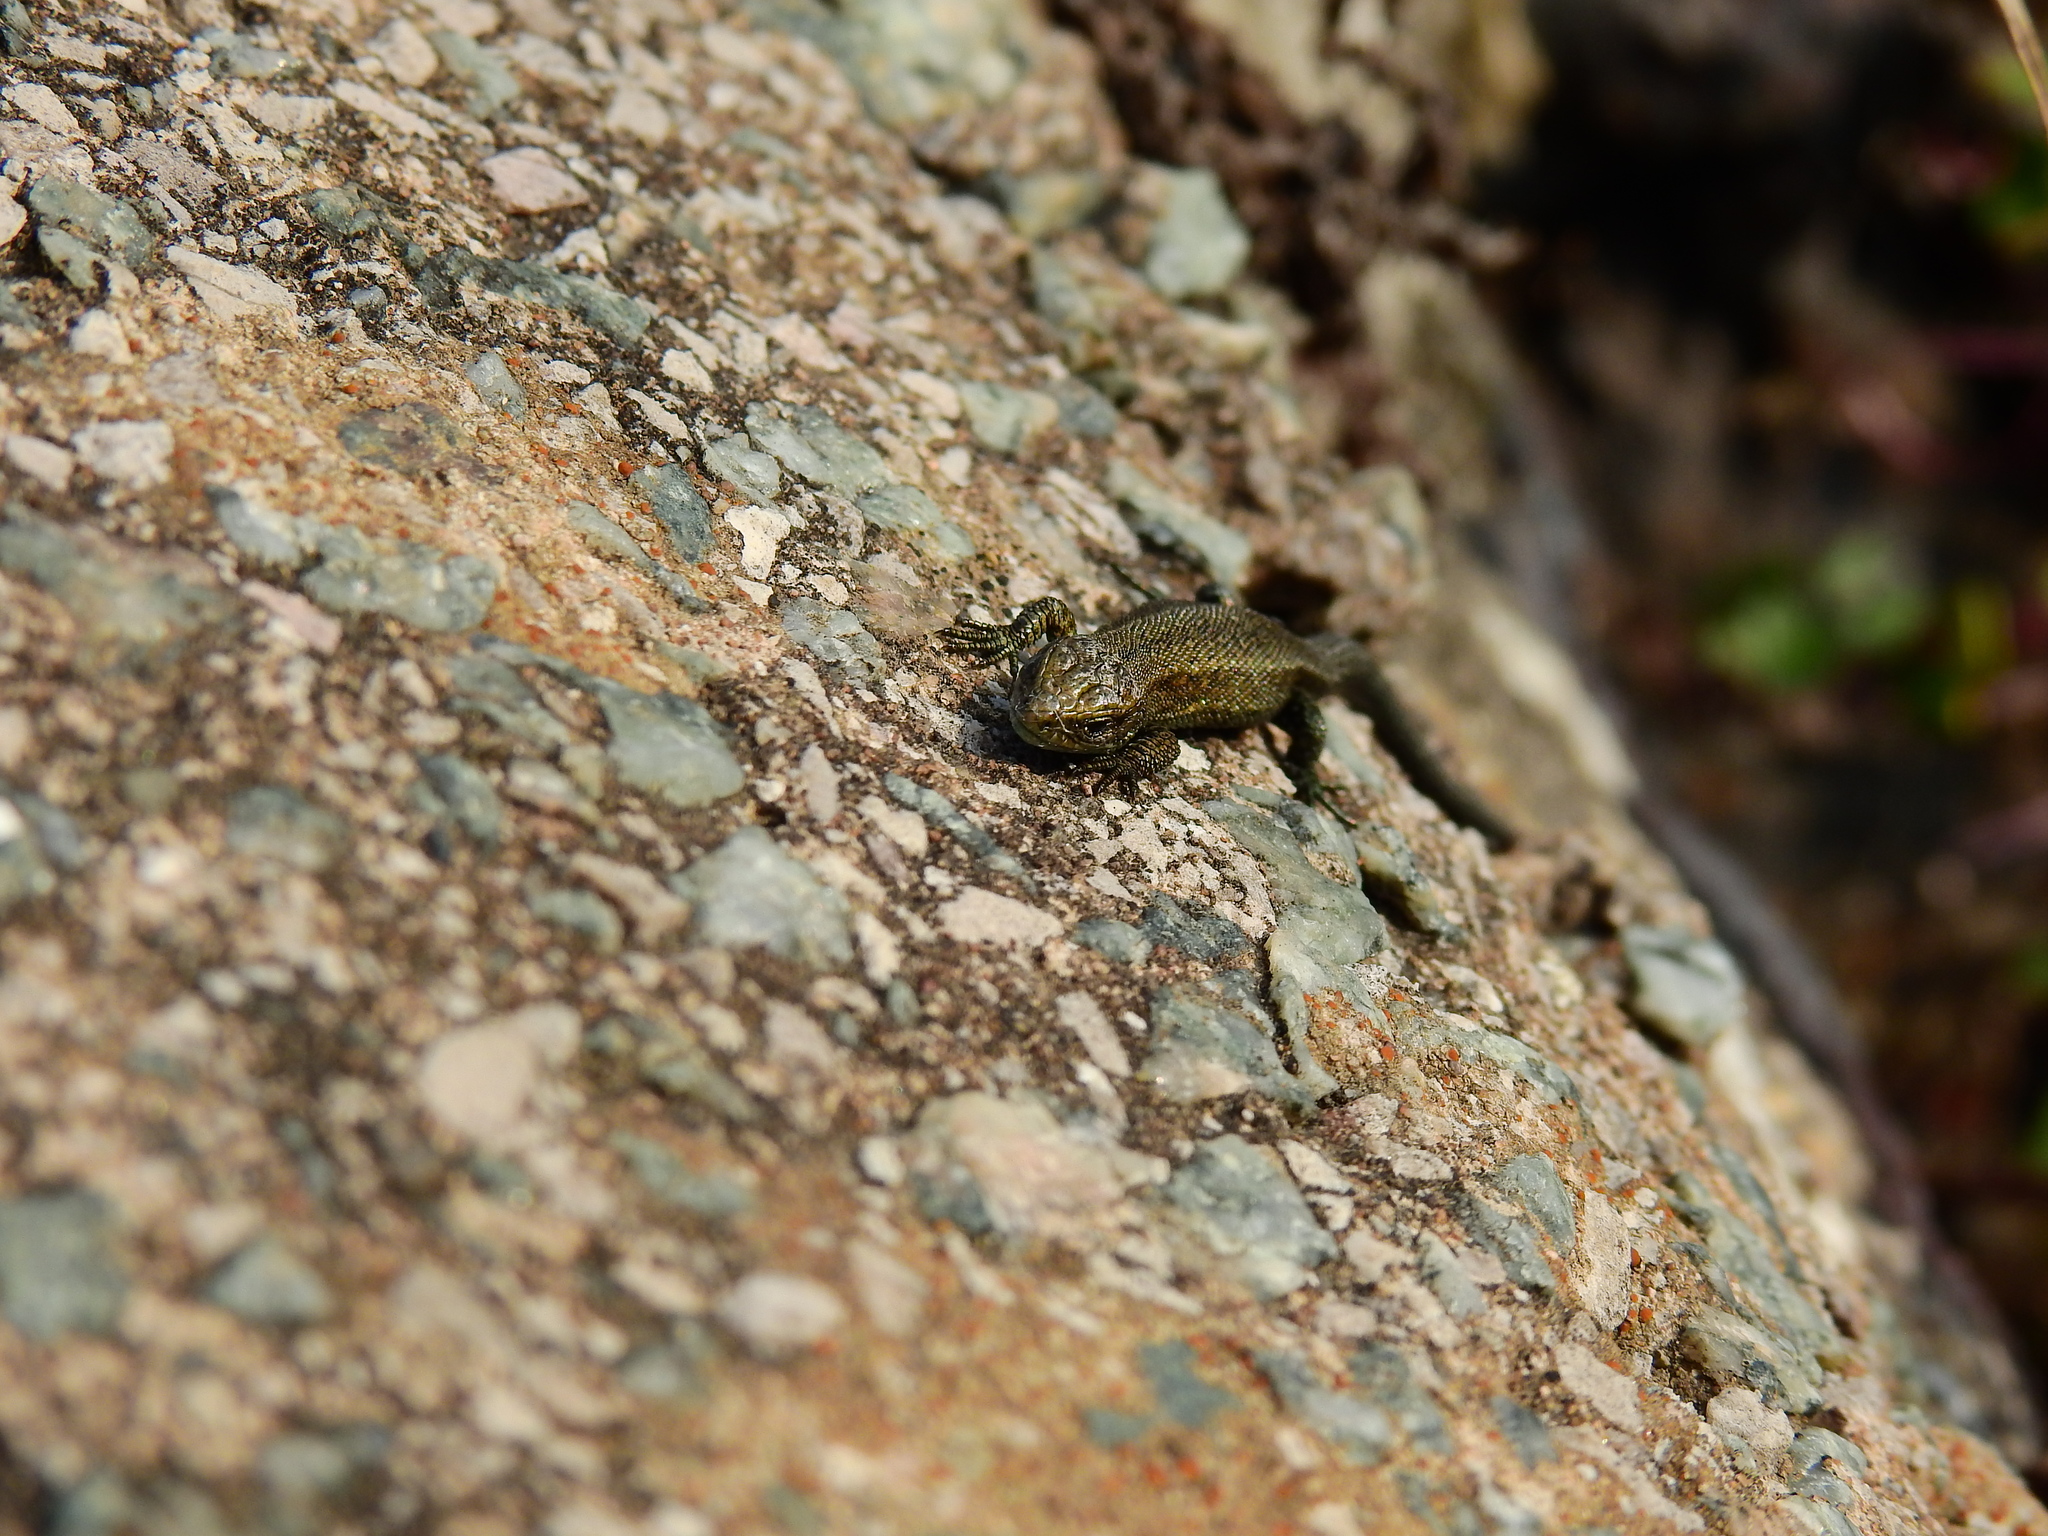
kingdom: Animalia
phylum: Chordata
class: Squamata
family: Lacertidae
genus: Zootoca
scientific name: Zootoca vivipara
